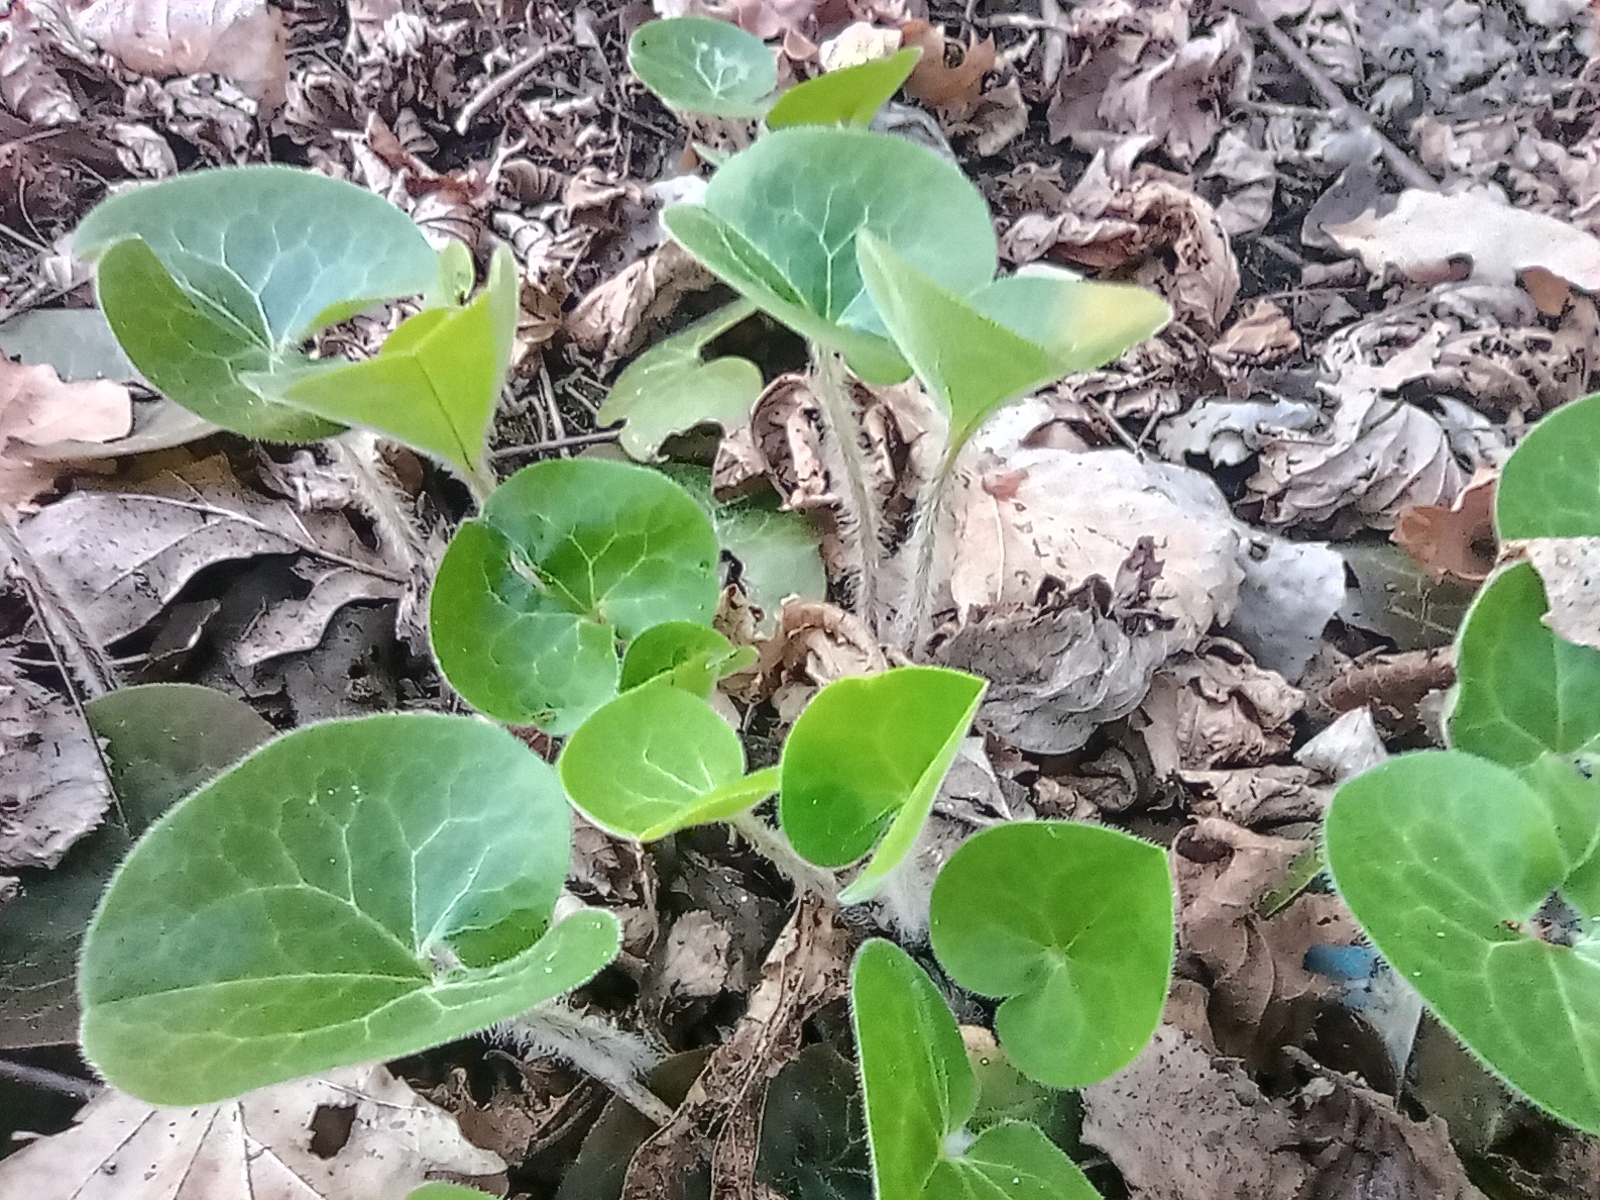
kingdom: Plantae
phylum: Tracheophyta
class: Magnoliopsida
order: Piperales
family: Aristolochiaceae
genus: Asarum
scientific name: Asarum europaeum
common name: Asarabacca
